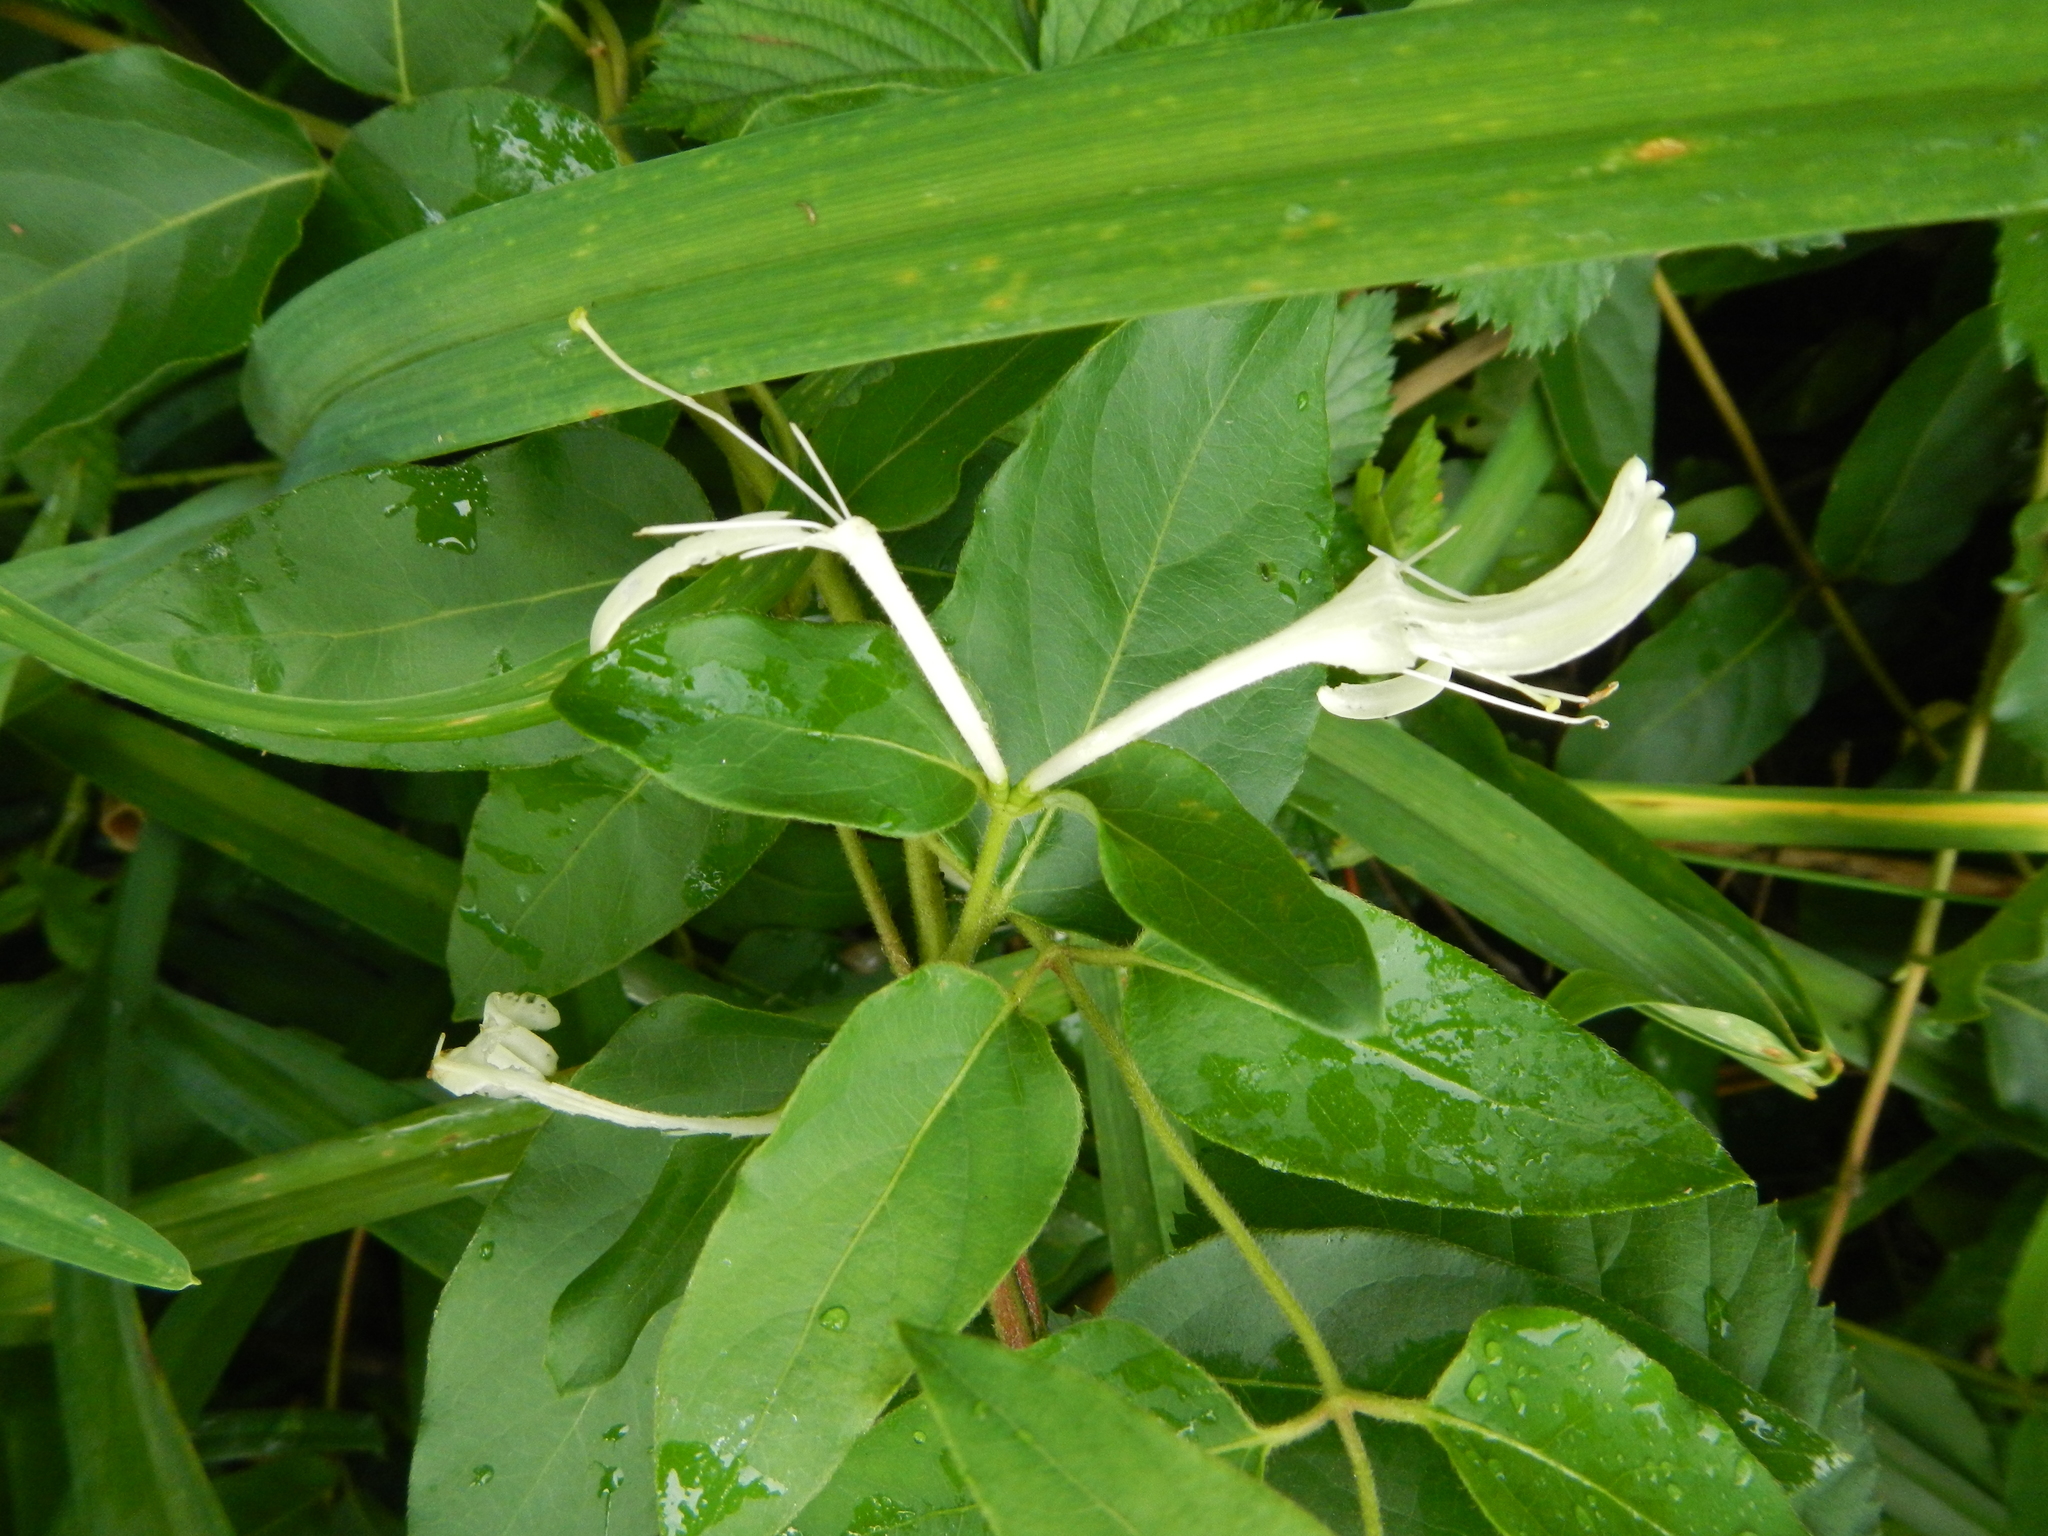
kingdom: Plantae
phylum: Tracheophyta
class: Magnoliopsida
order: Dipsacales
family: Caprifoliaceae
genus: Lonicera
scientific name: Lonicera japonica
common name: Japanese honeysuckle
